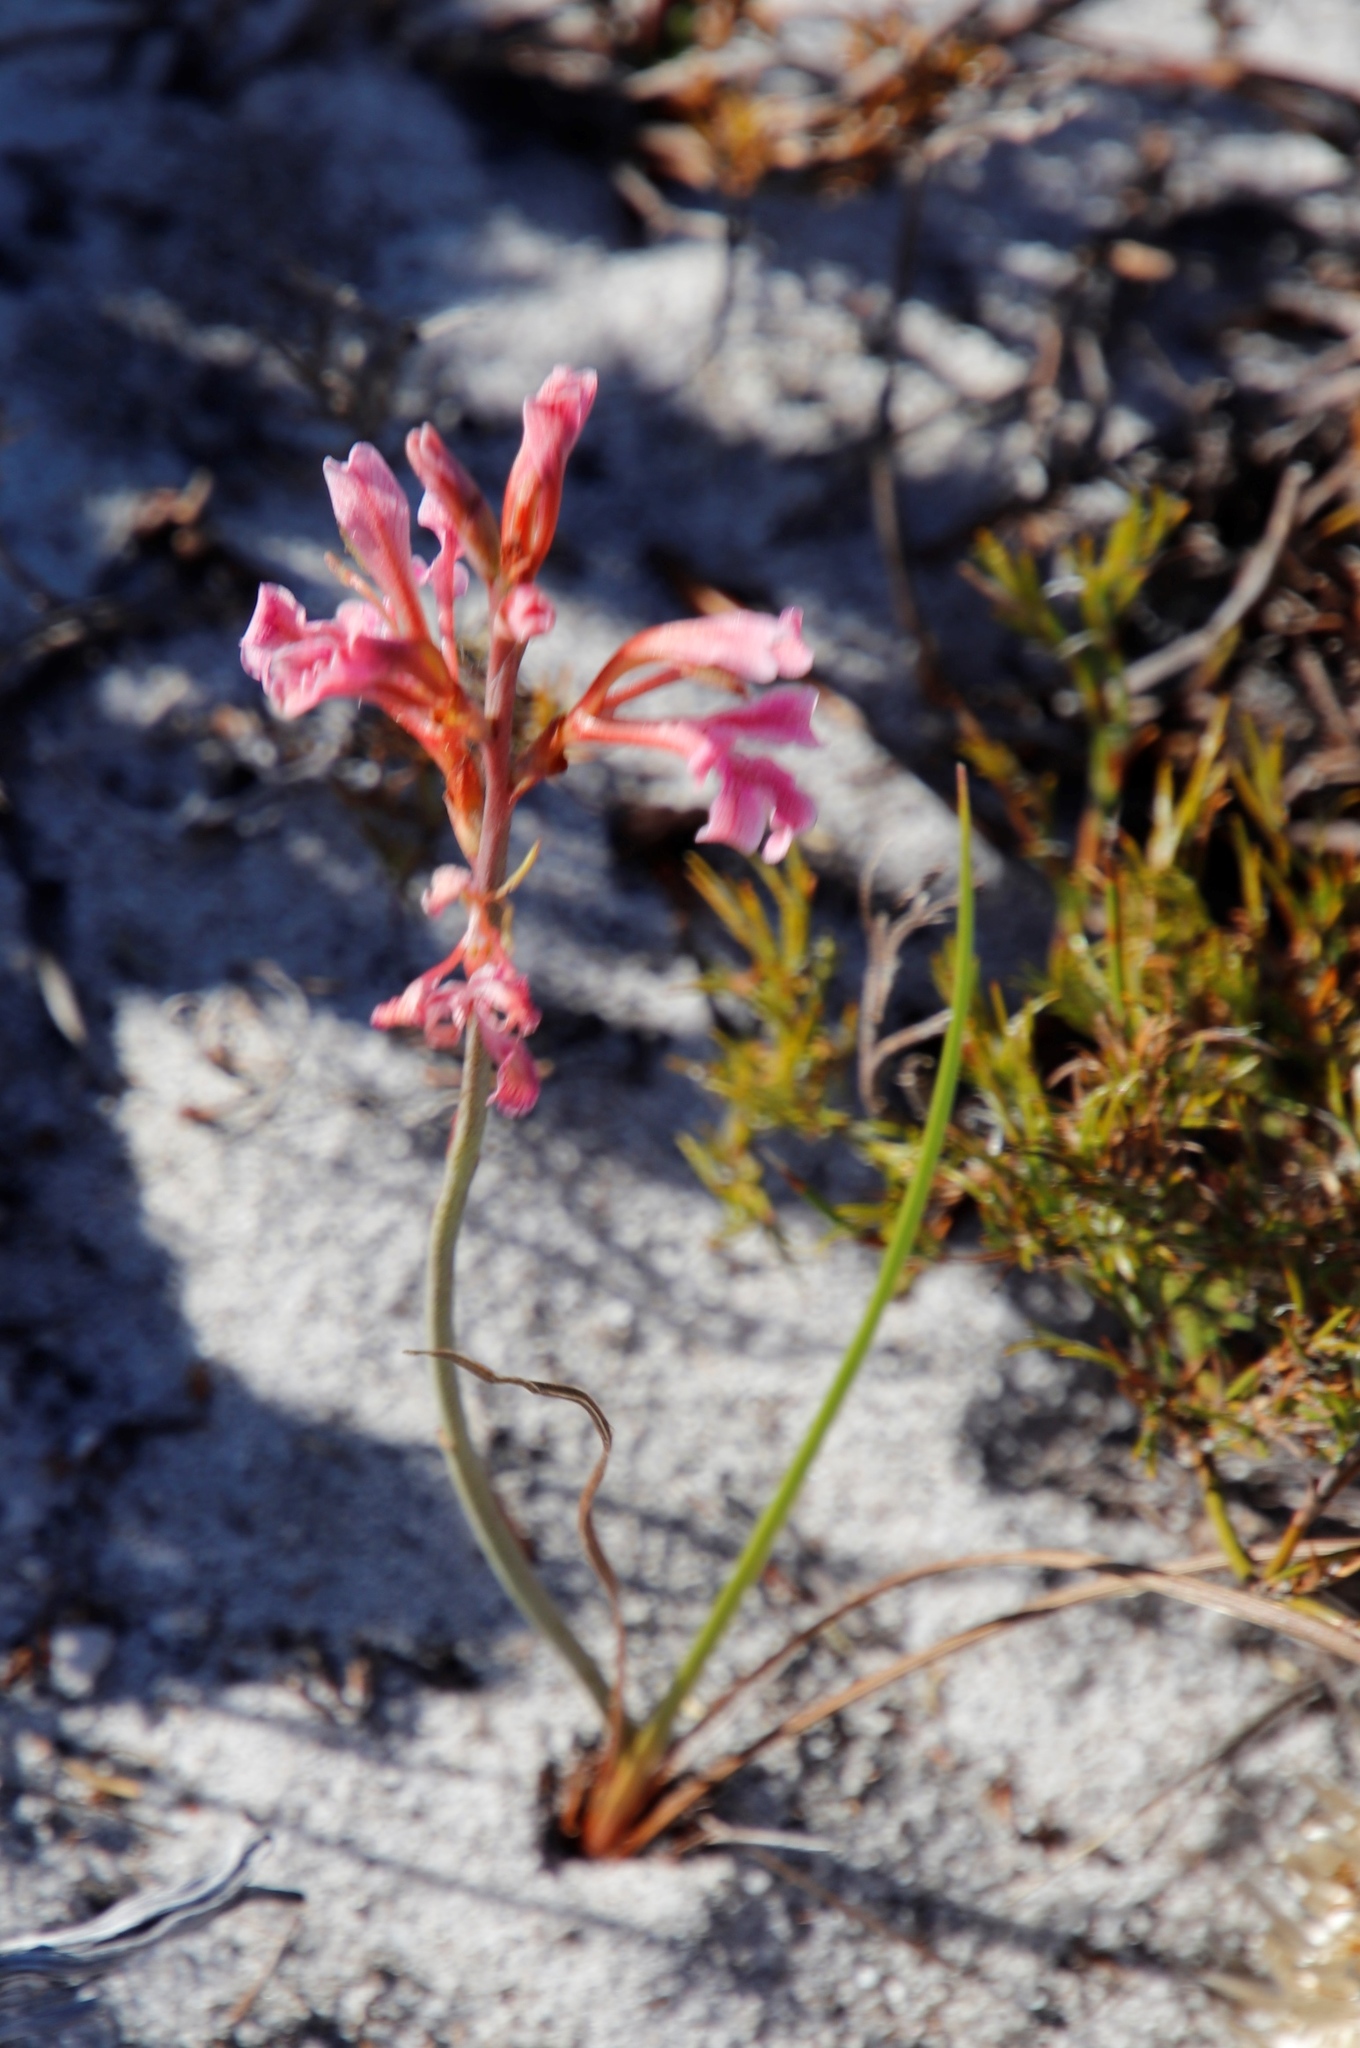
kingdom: Plantae
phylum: Tracheophyta
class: Liliopsida
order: Asparagales
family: Iridaceae
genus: Tritoniopsis
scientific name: Tritoniopsis dodii
